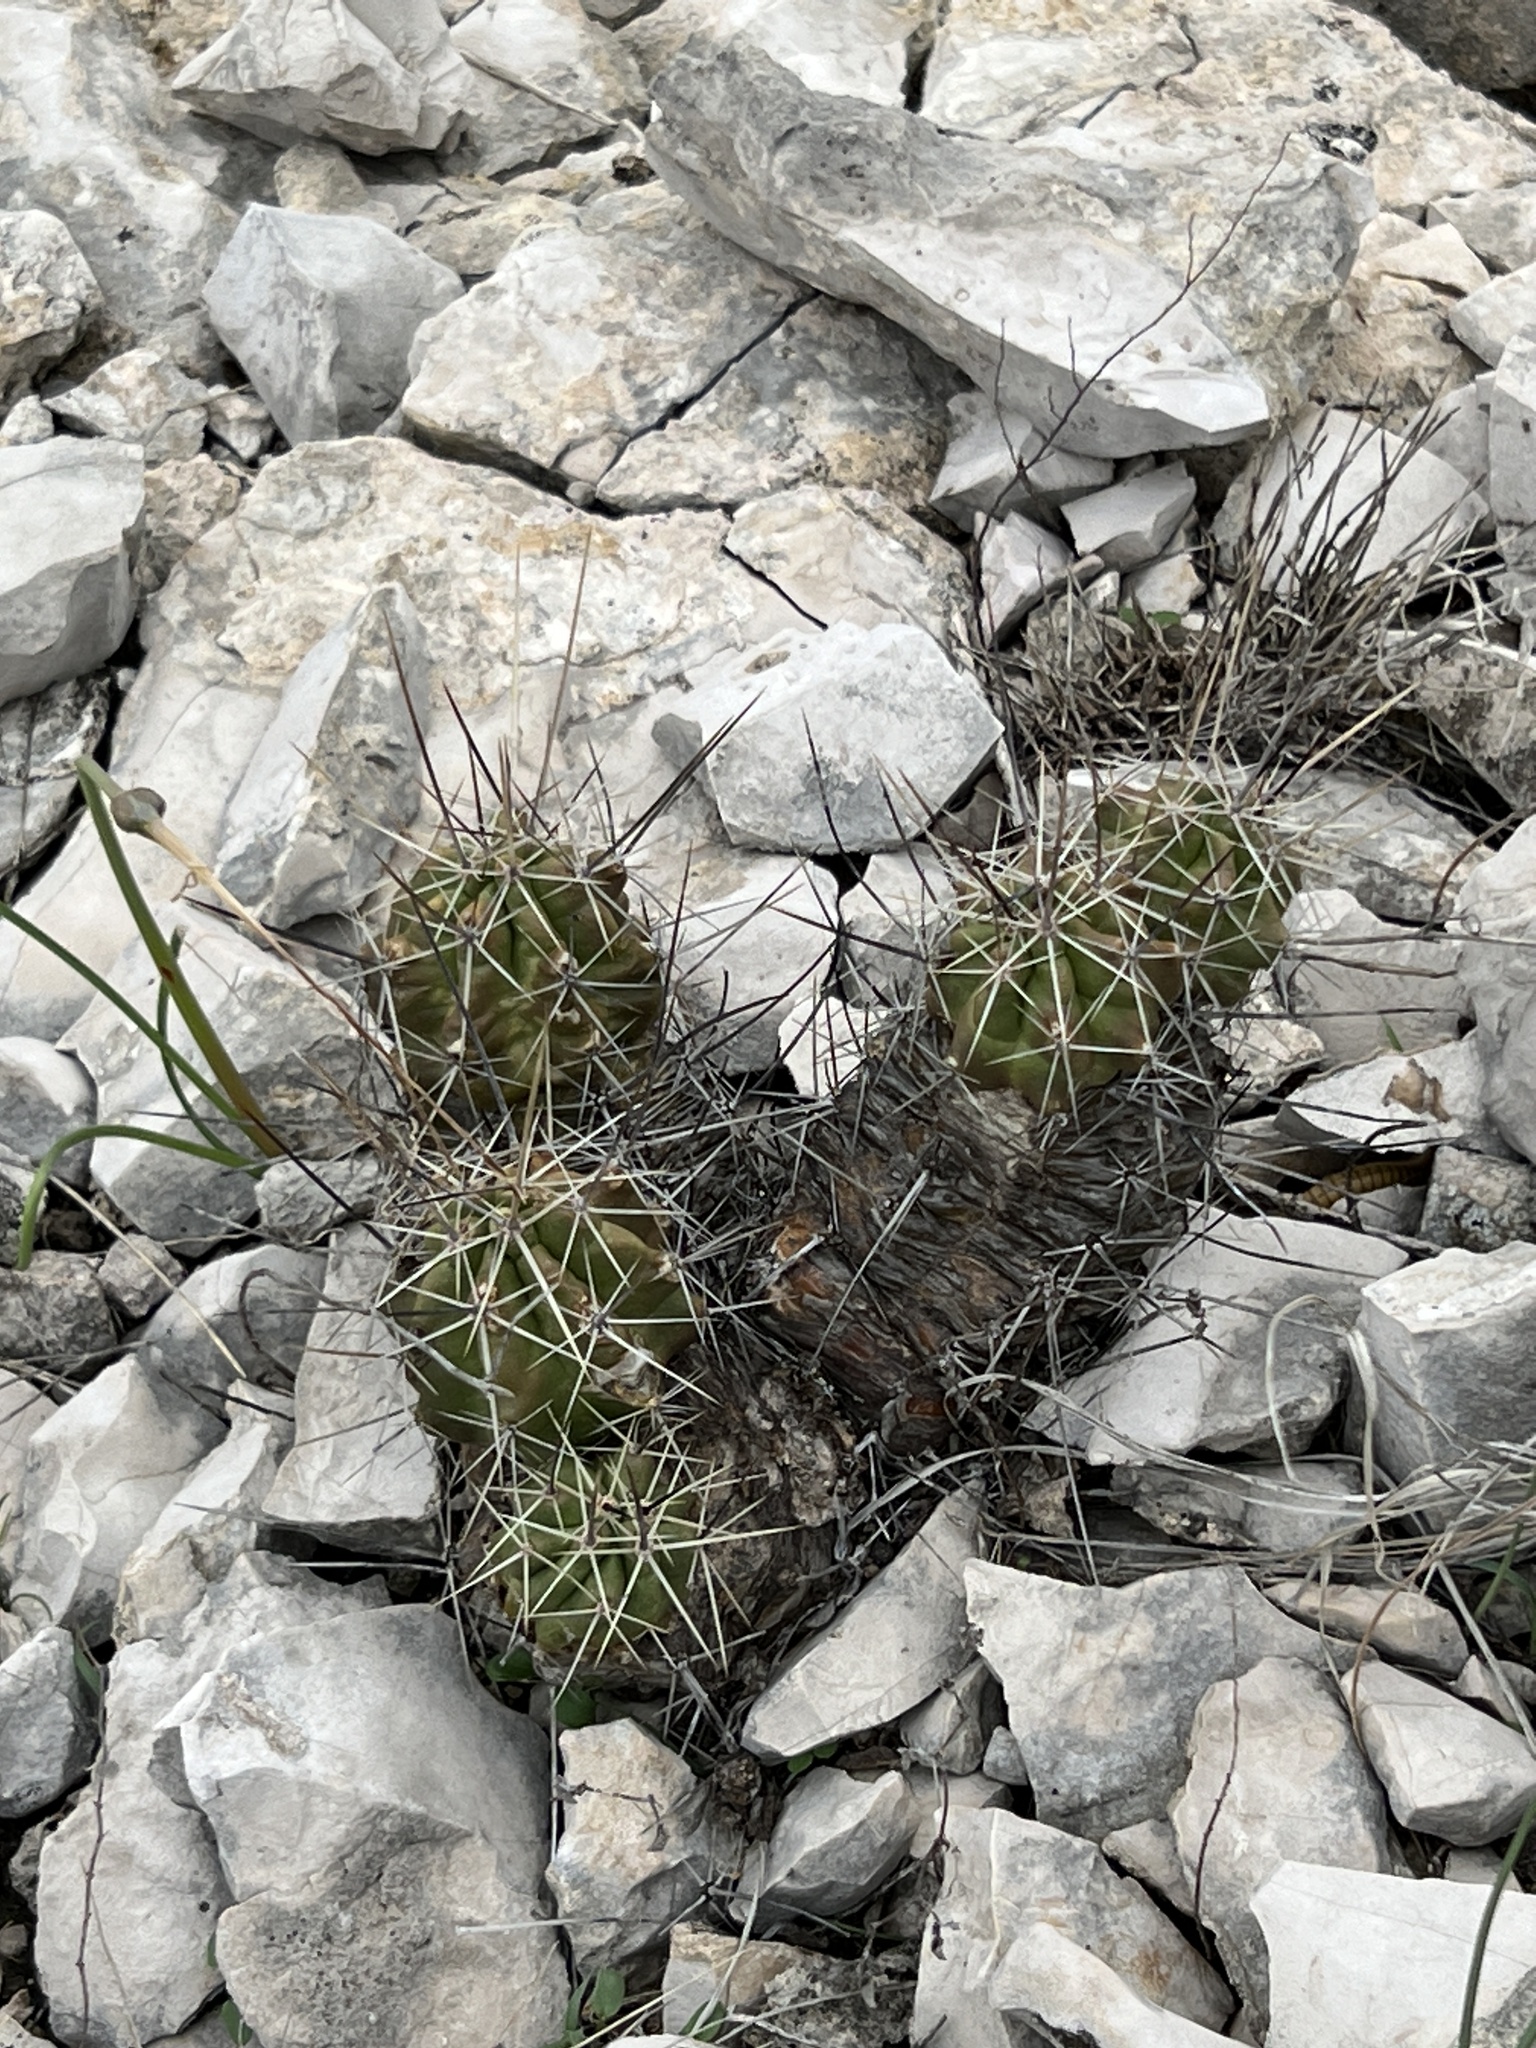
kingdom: Plantae
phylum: Tracheophyta
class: Magnoliopsida
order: Caryophyllales
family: Cactaceae
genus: Echinocereus
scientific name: Echinocereus enneacanthus
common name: Pitaya
